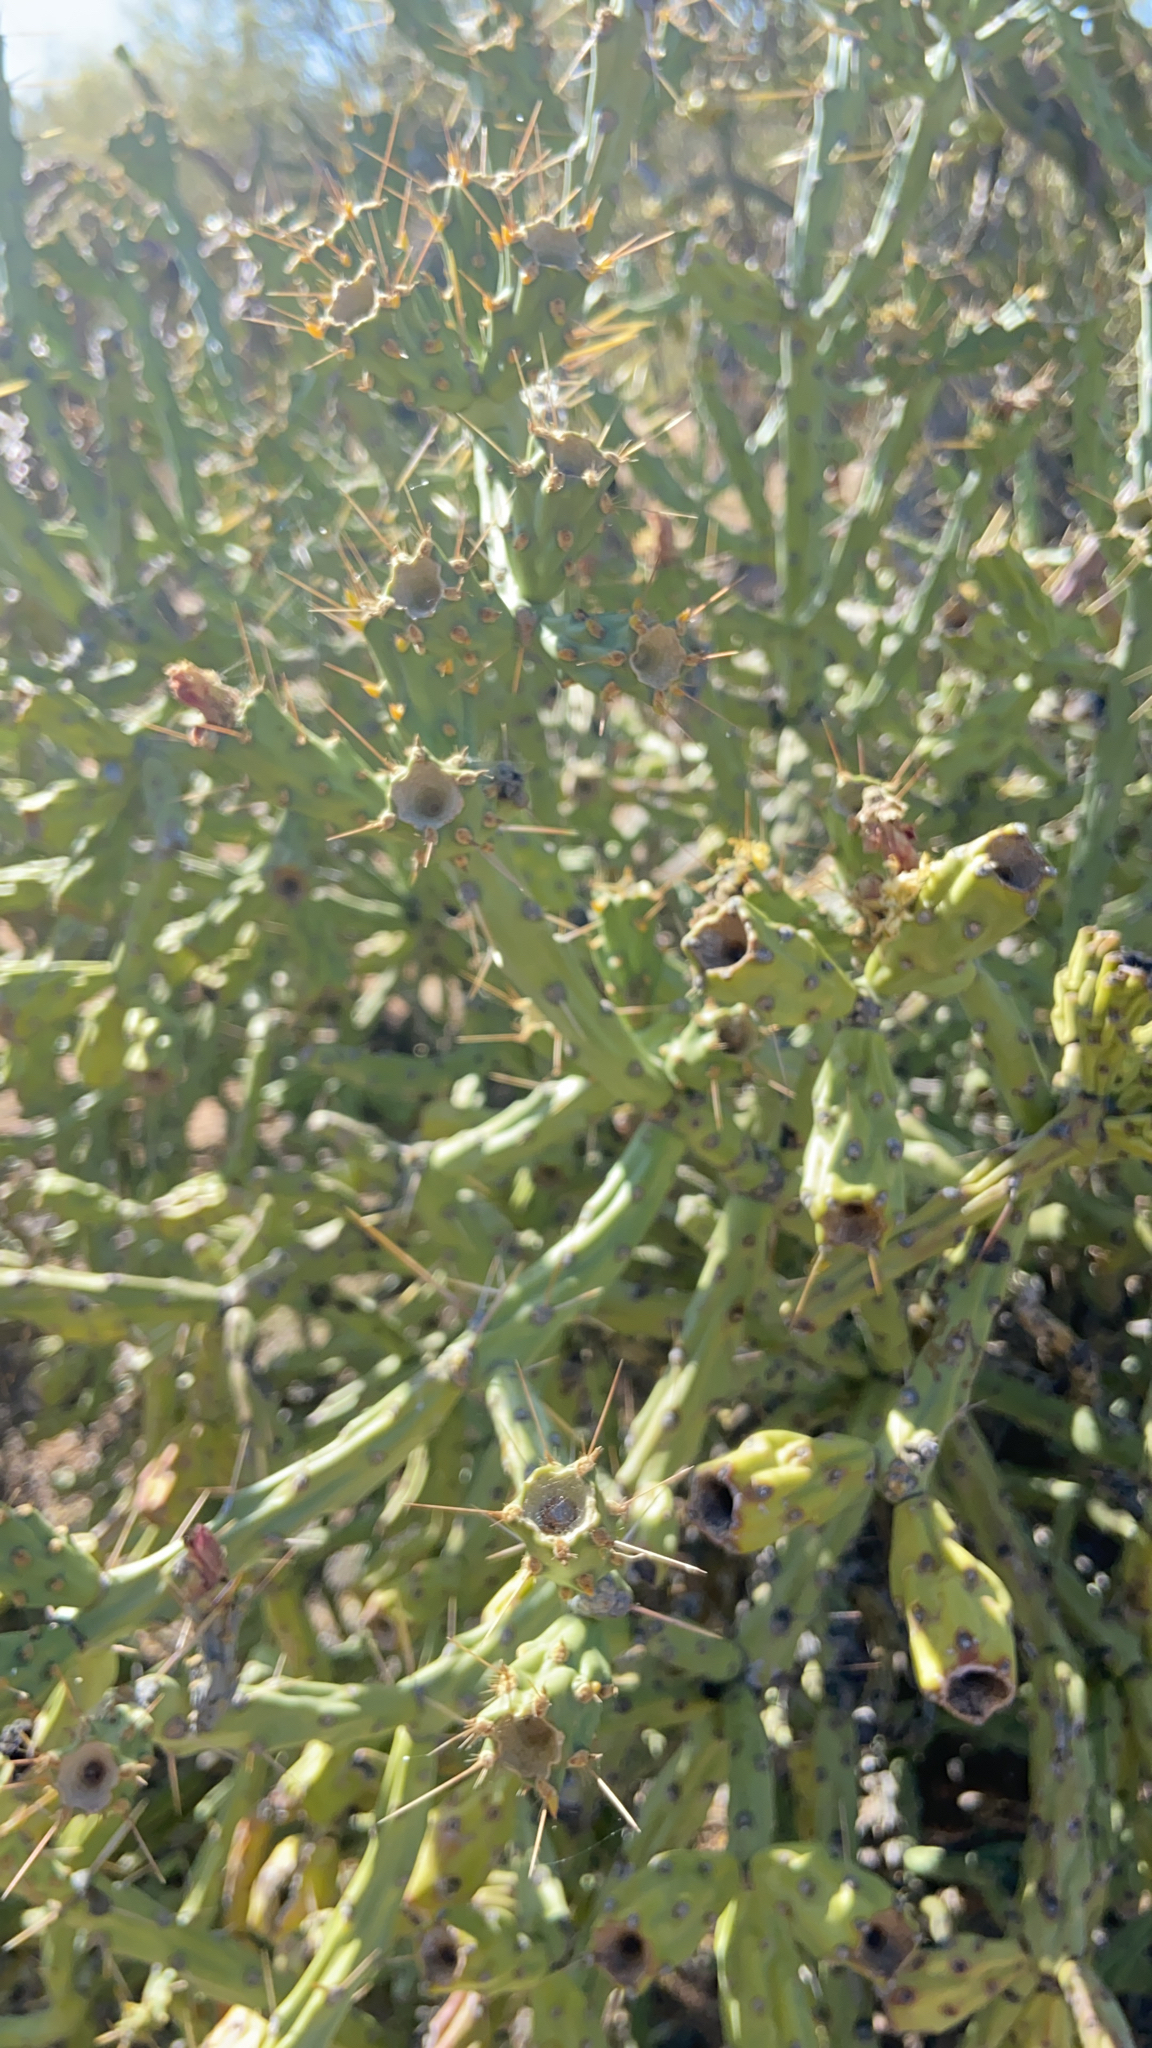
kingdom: Plantae
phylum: Tracheophyta
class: Magnoliopsida
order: Caryophyllales
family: Cactaceae
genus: Cylindropuntia
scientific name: Cylindropuntia arbuscula
